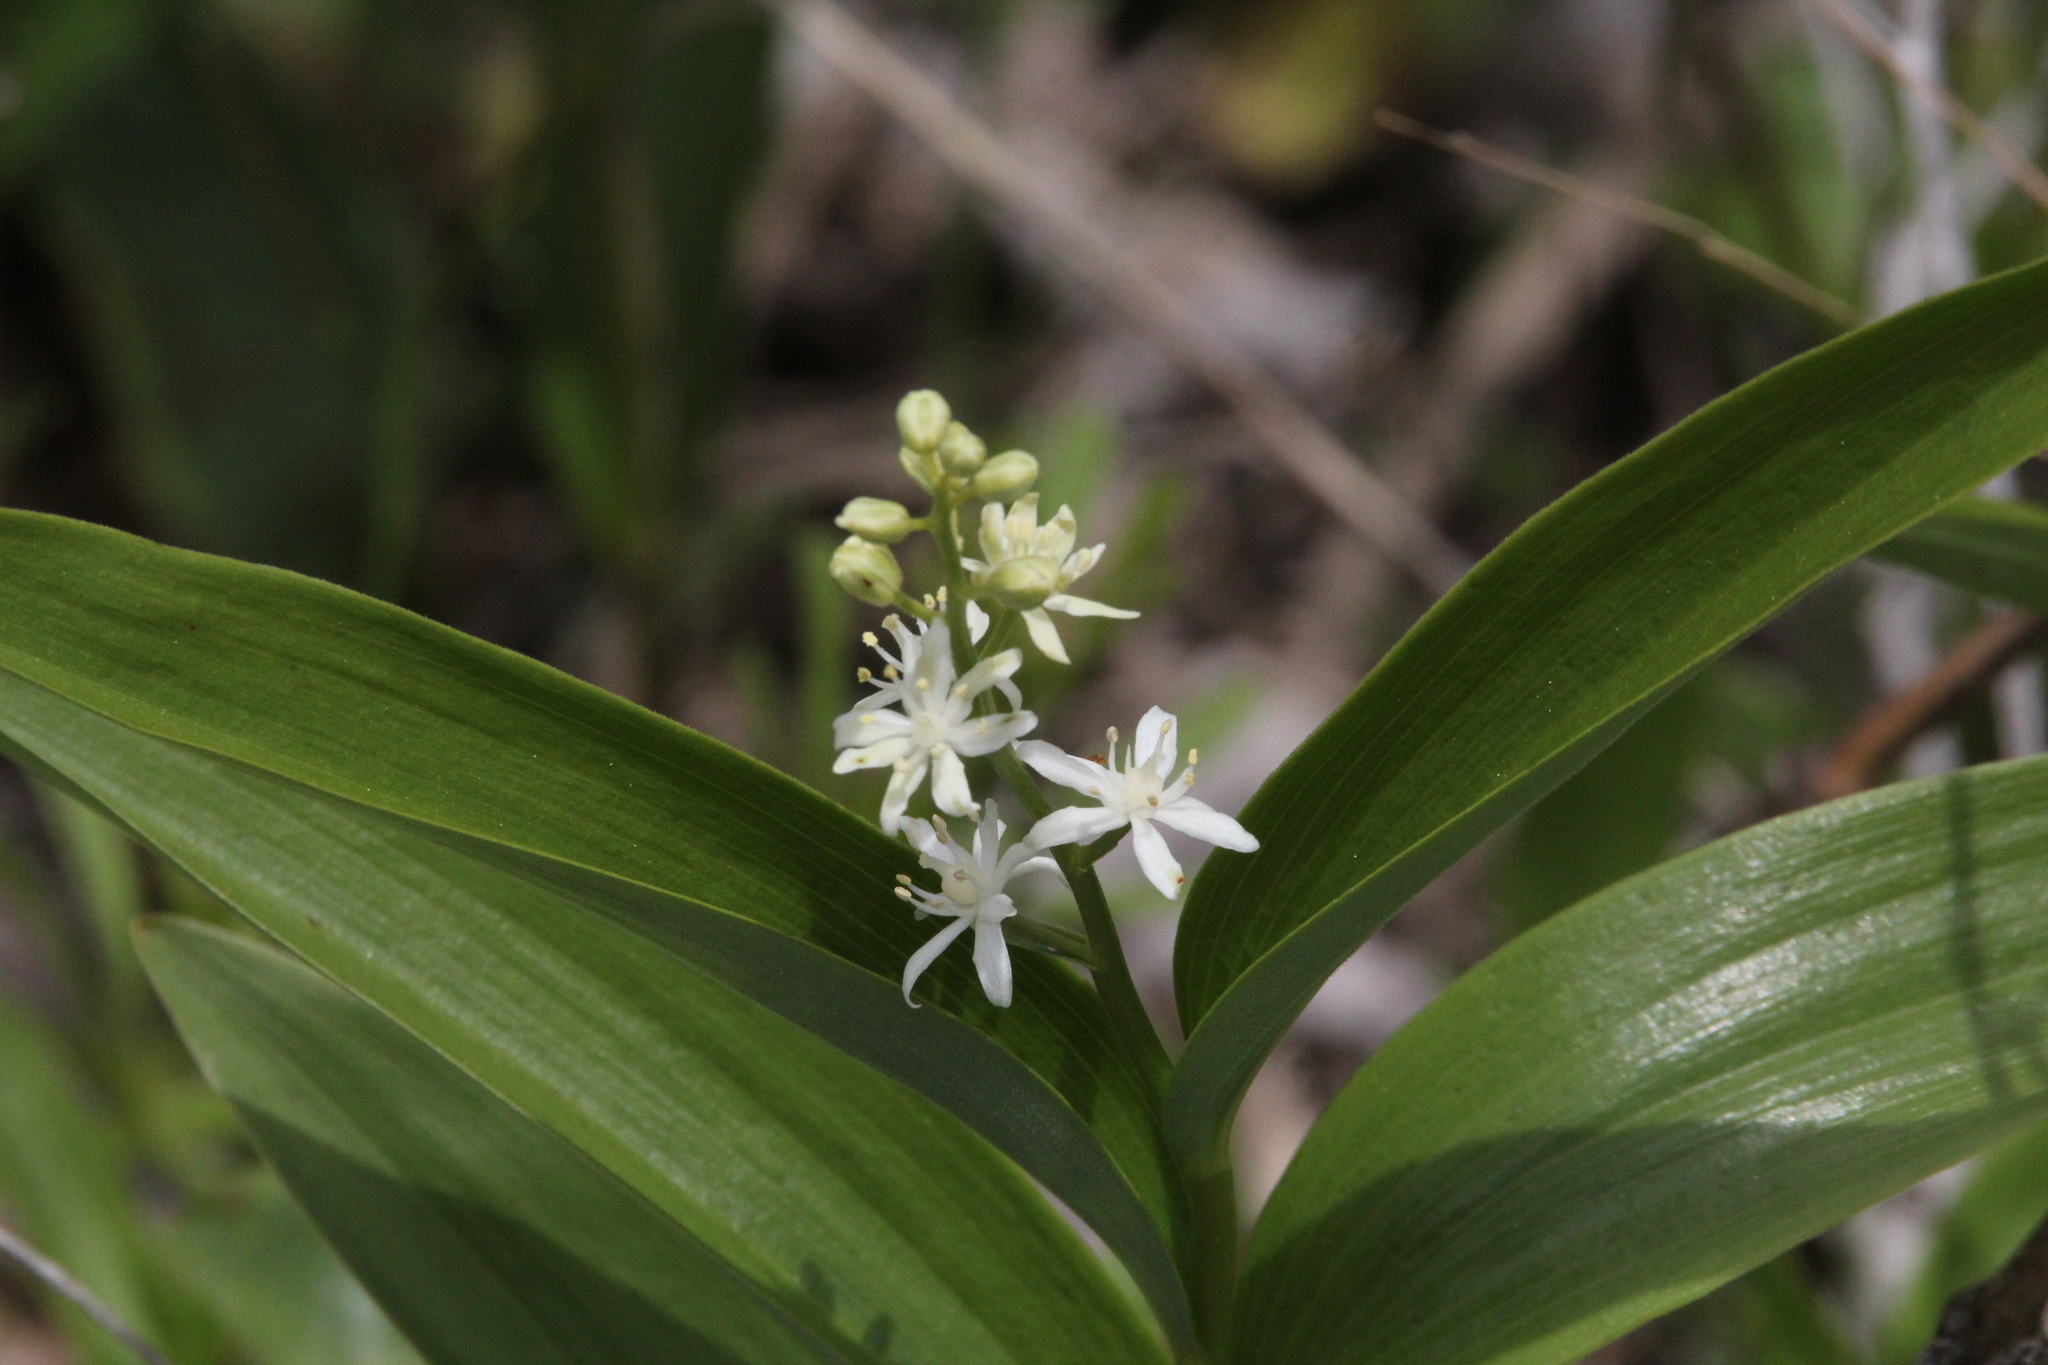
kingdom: Plantae
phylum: Tracheophyta
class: Liliopsida
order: Asparagales
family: Asparagaceae
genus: Maianthemum
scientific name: Maianthemum stellatum
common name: Little false solomon's seal
